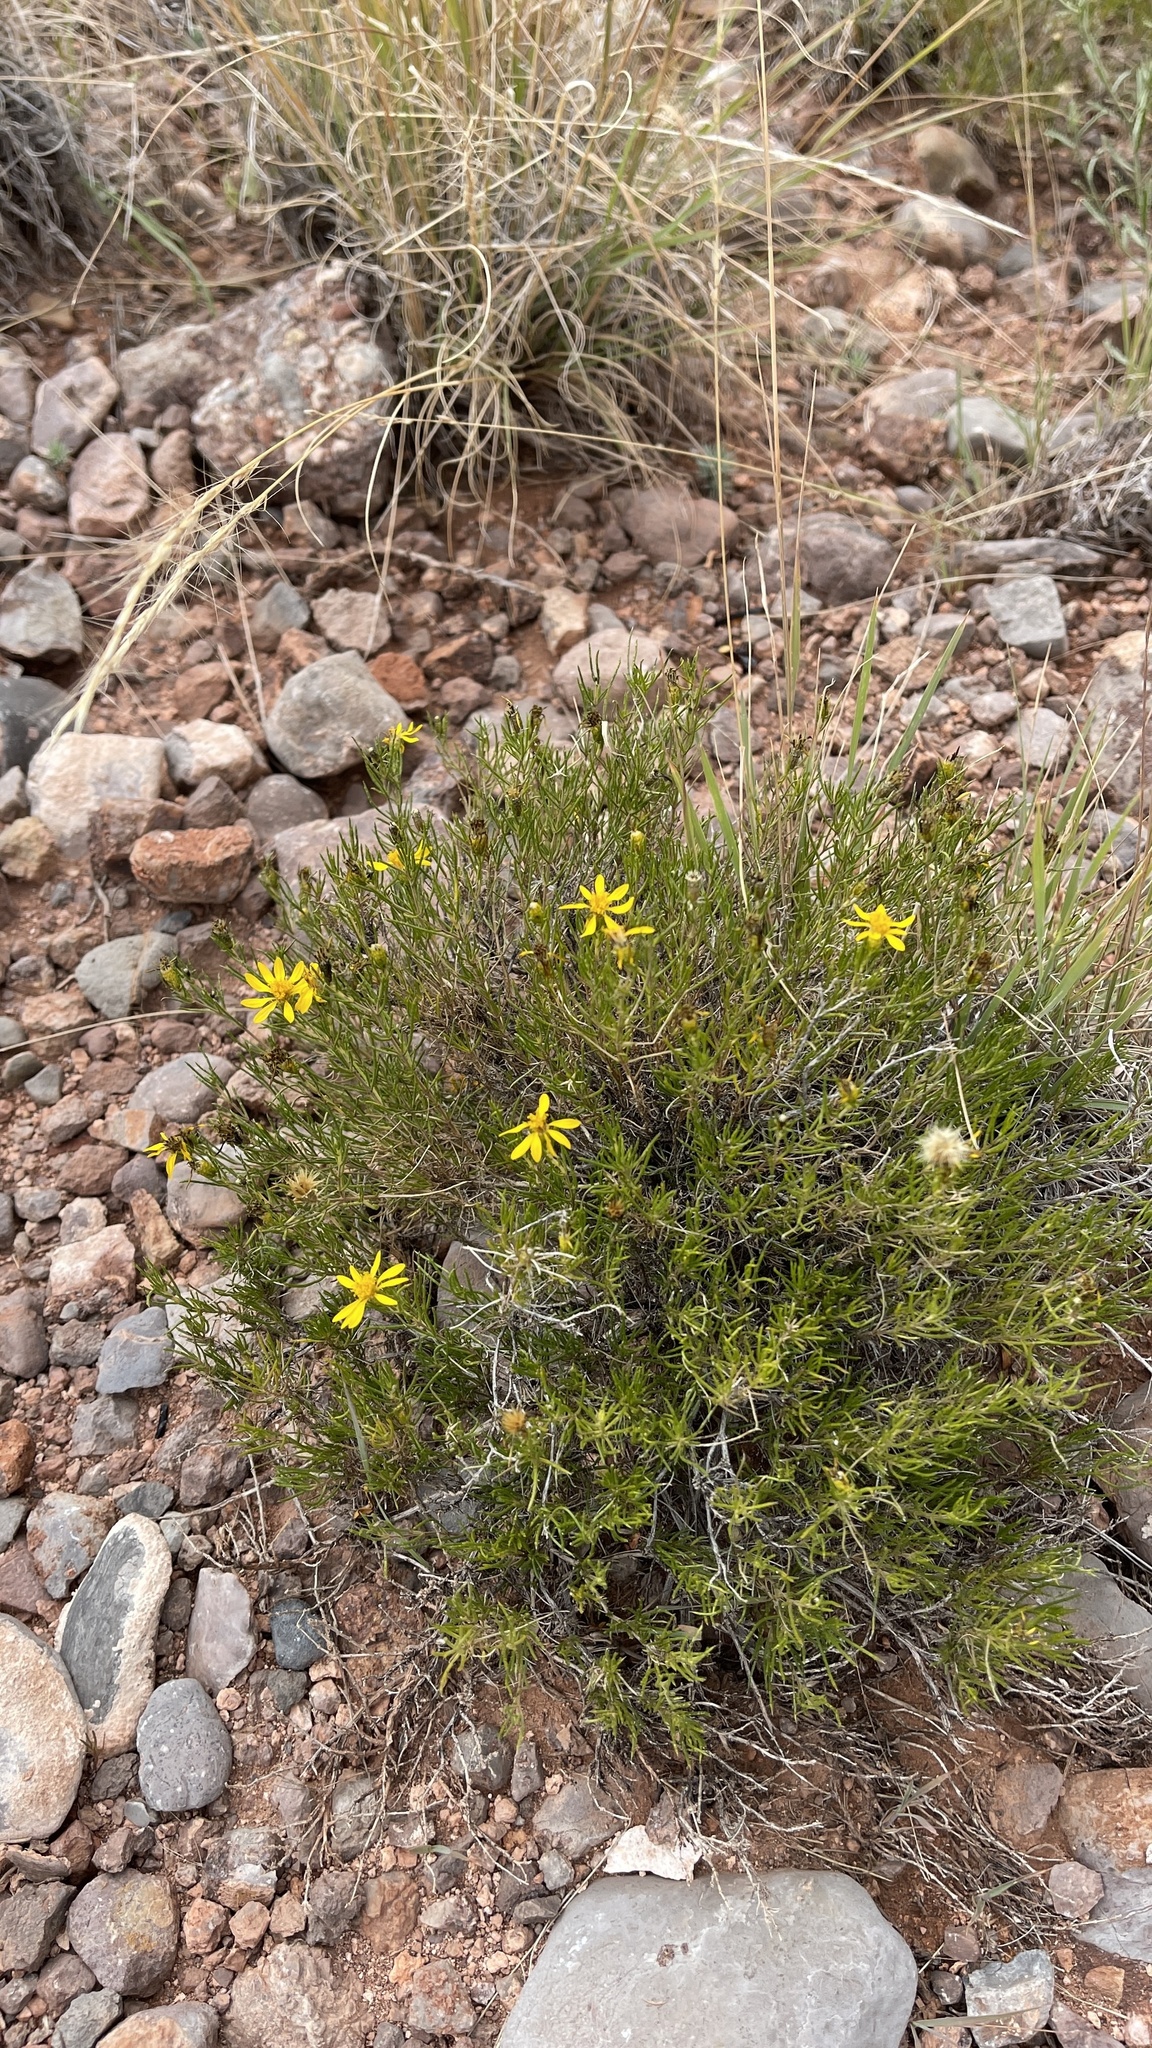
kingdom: Plantae
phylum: Tracheophyta
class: Magnoliopsida
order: Asterales
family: Asteraceae
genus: Thymophylla
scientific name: Thymophylla acerosa
